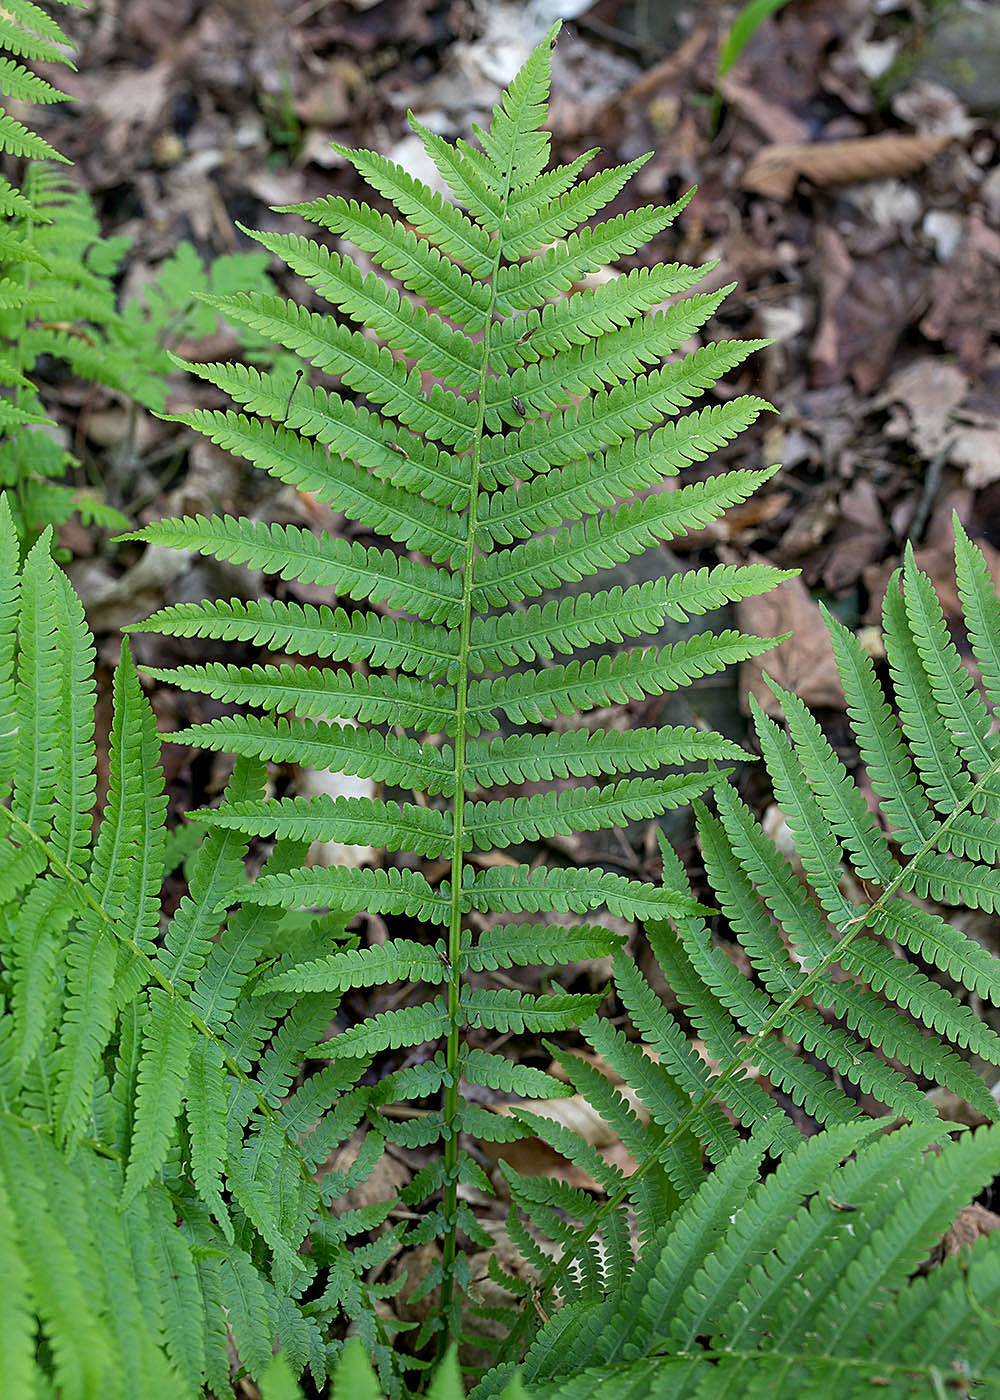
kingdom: Plantae
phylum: Tracheophyta
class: Polypodiopsida
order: Polypodiales
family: Onocleaceae
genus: Matteuccia
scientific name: Matteuccia struthiopteris
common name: Ostrich fern
